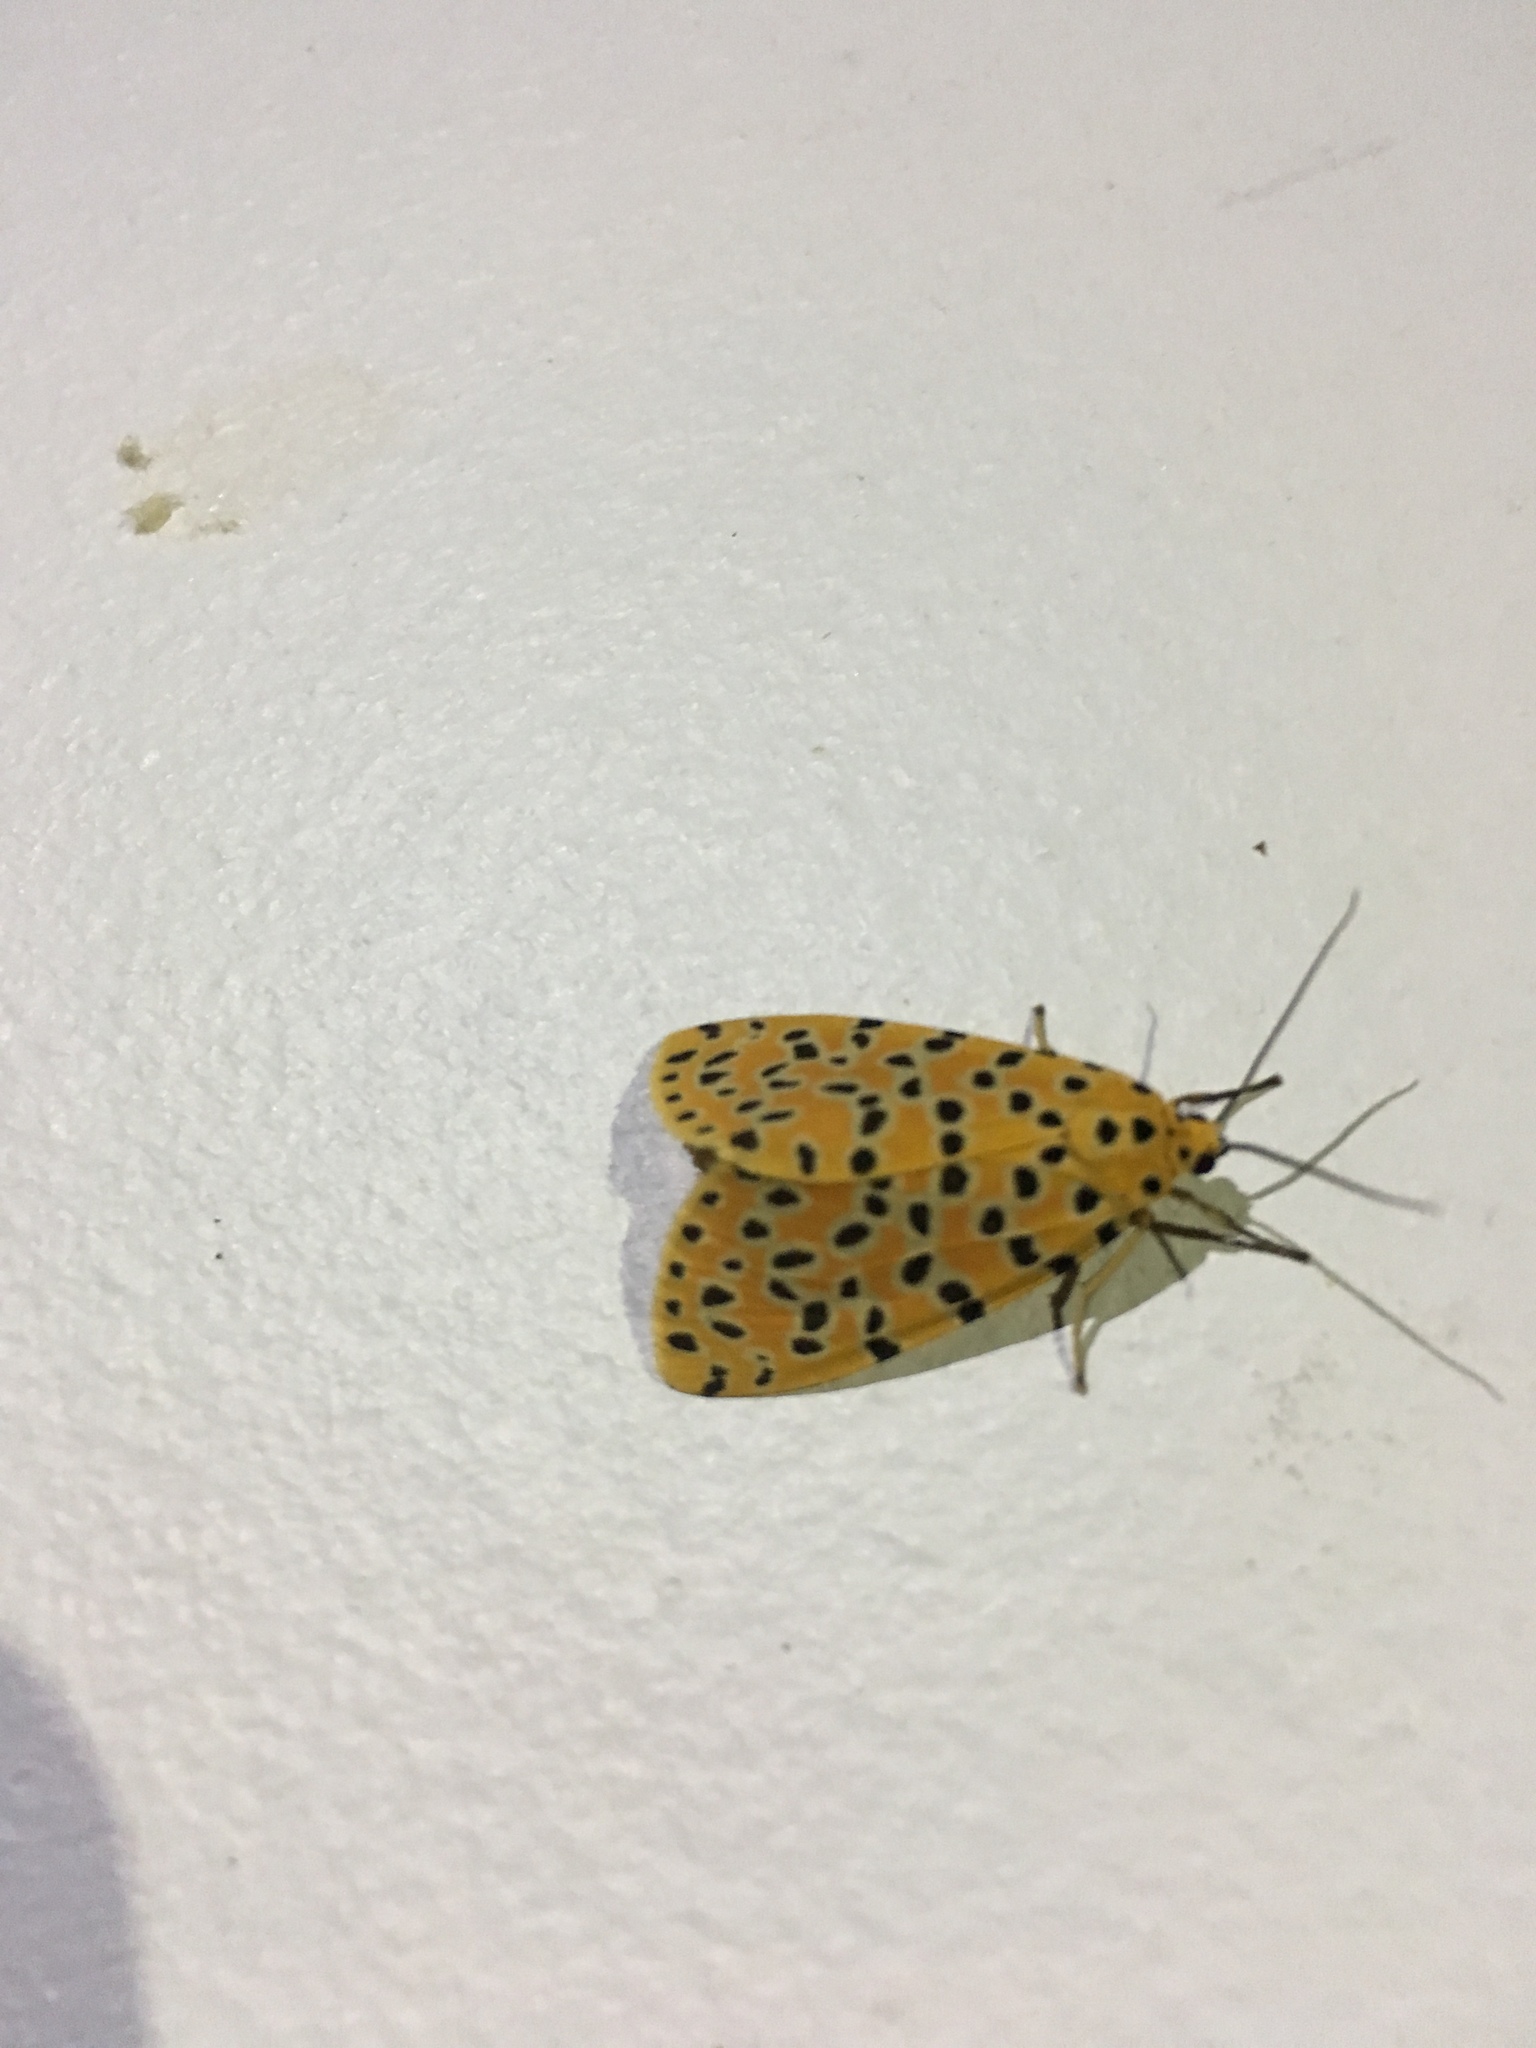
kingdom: Animalia
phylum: Arthropoda
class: Insecta
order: Lepidoptera
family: Erebidae
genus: Argina
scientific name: Argina astrea
